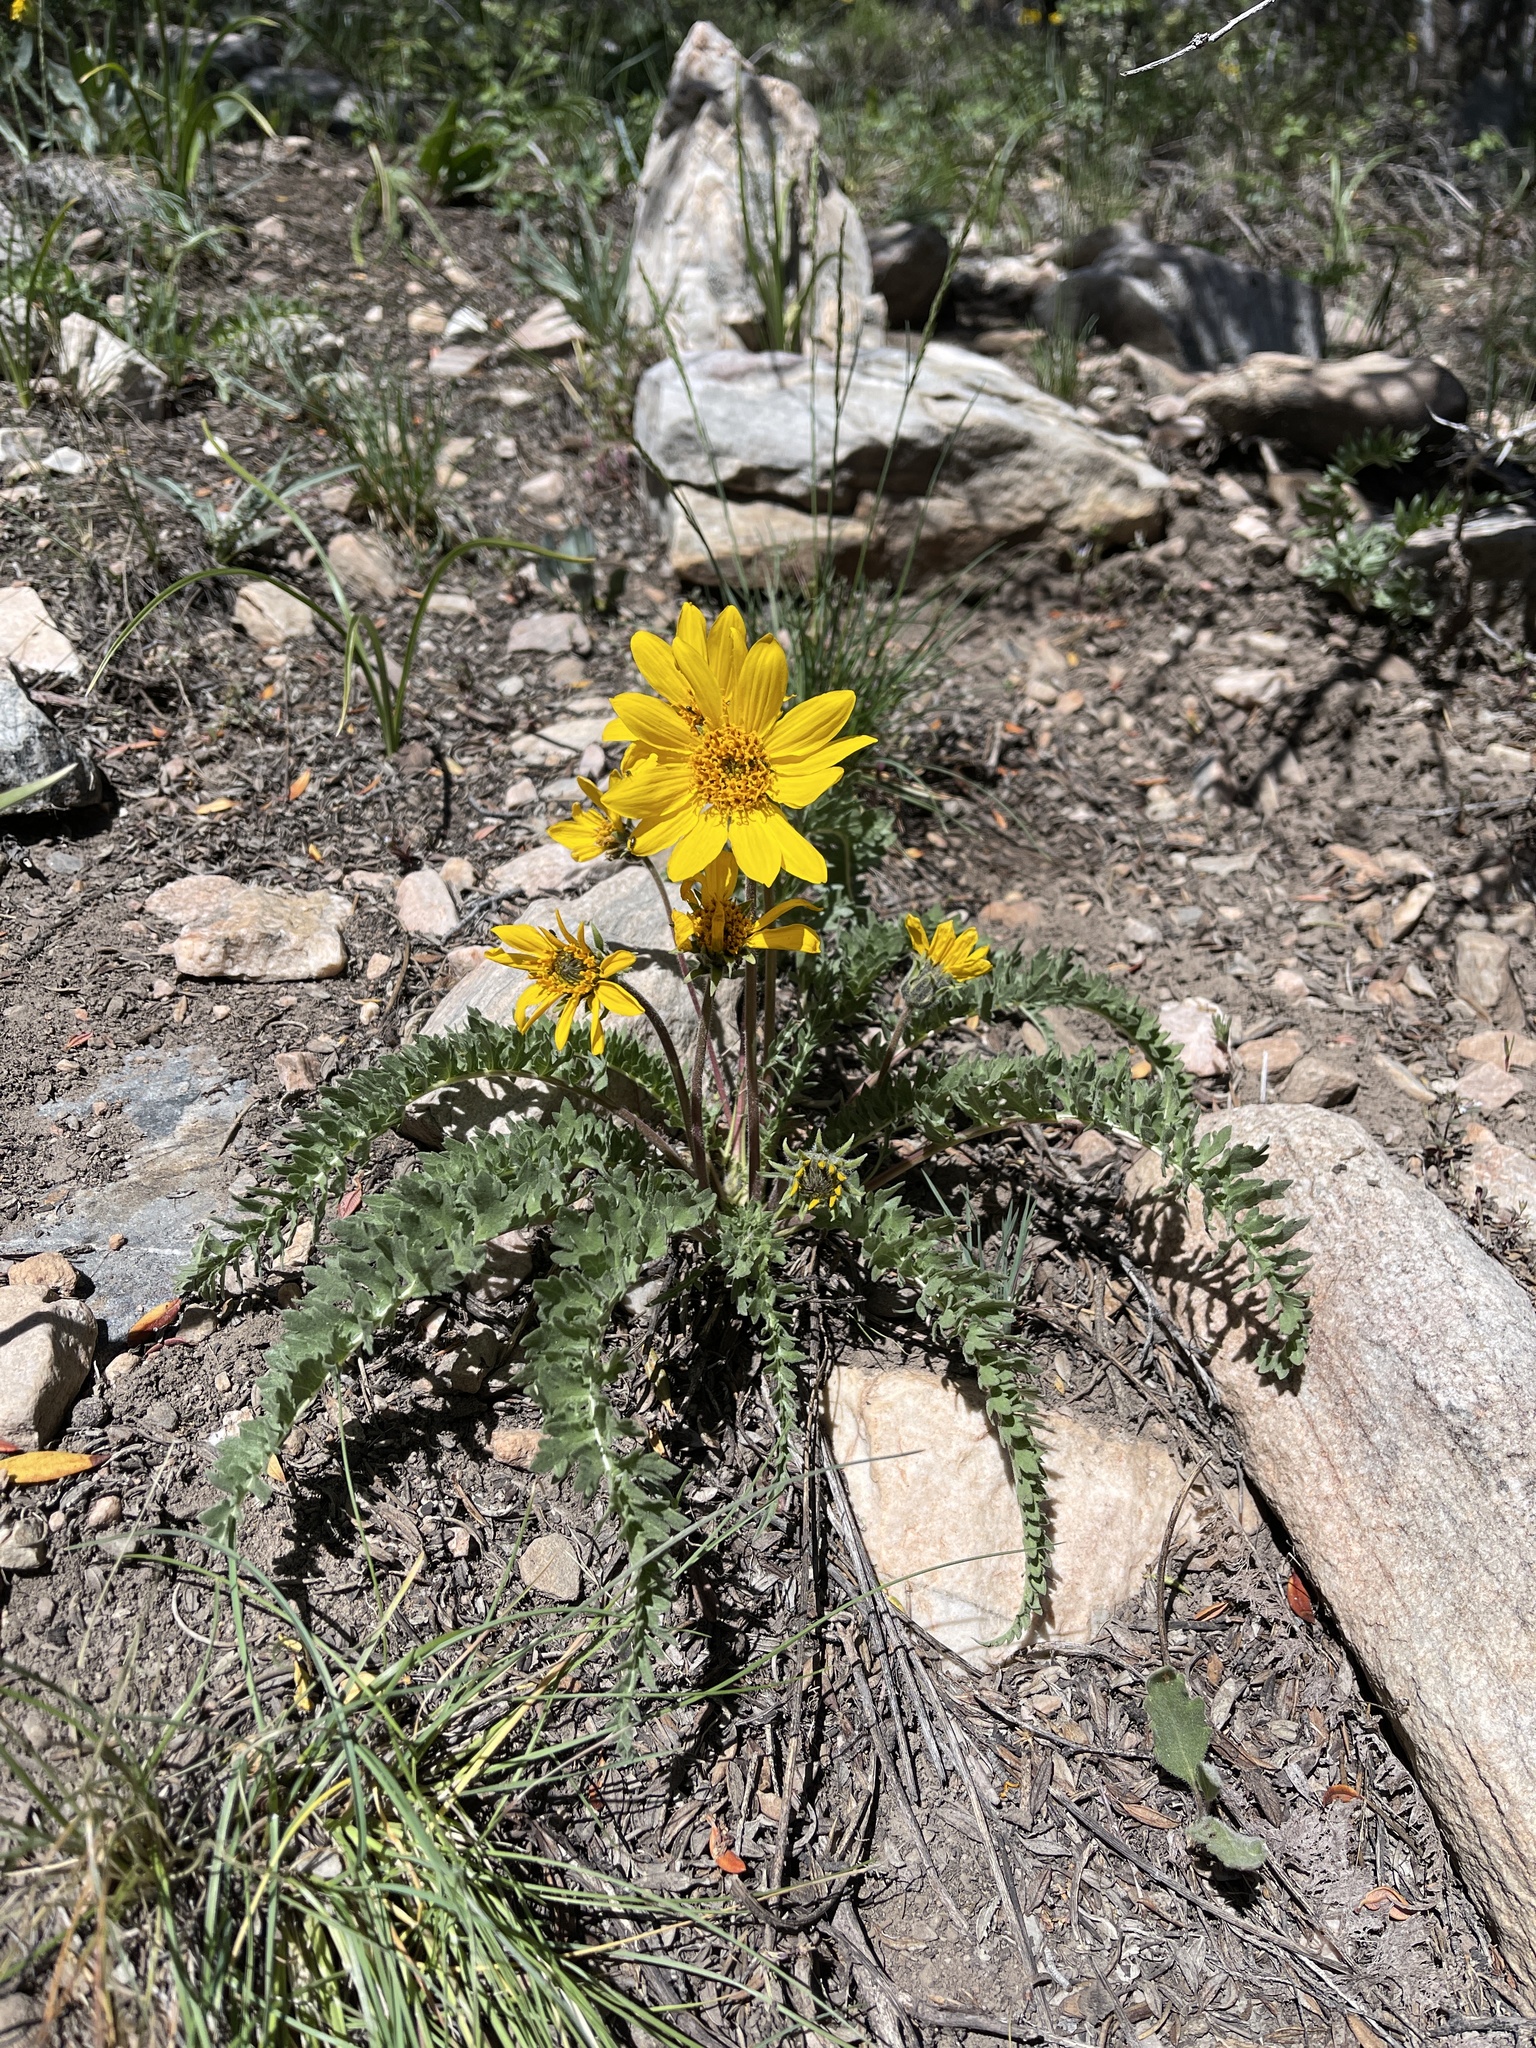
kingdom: Plantae
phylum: Tracheophyta
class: Magnoliopsida
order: Asterales
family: Asteraceae
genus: Balsamorhiza
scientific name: Balsamorhiza hookeri
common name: Hooker's balsamroot
